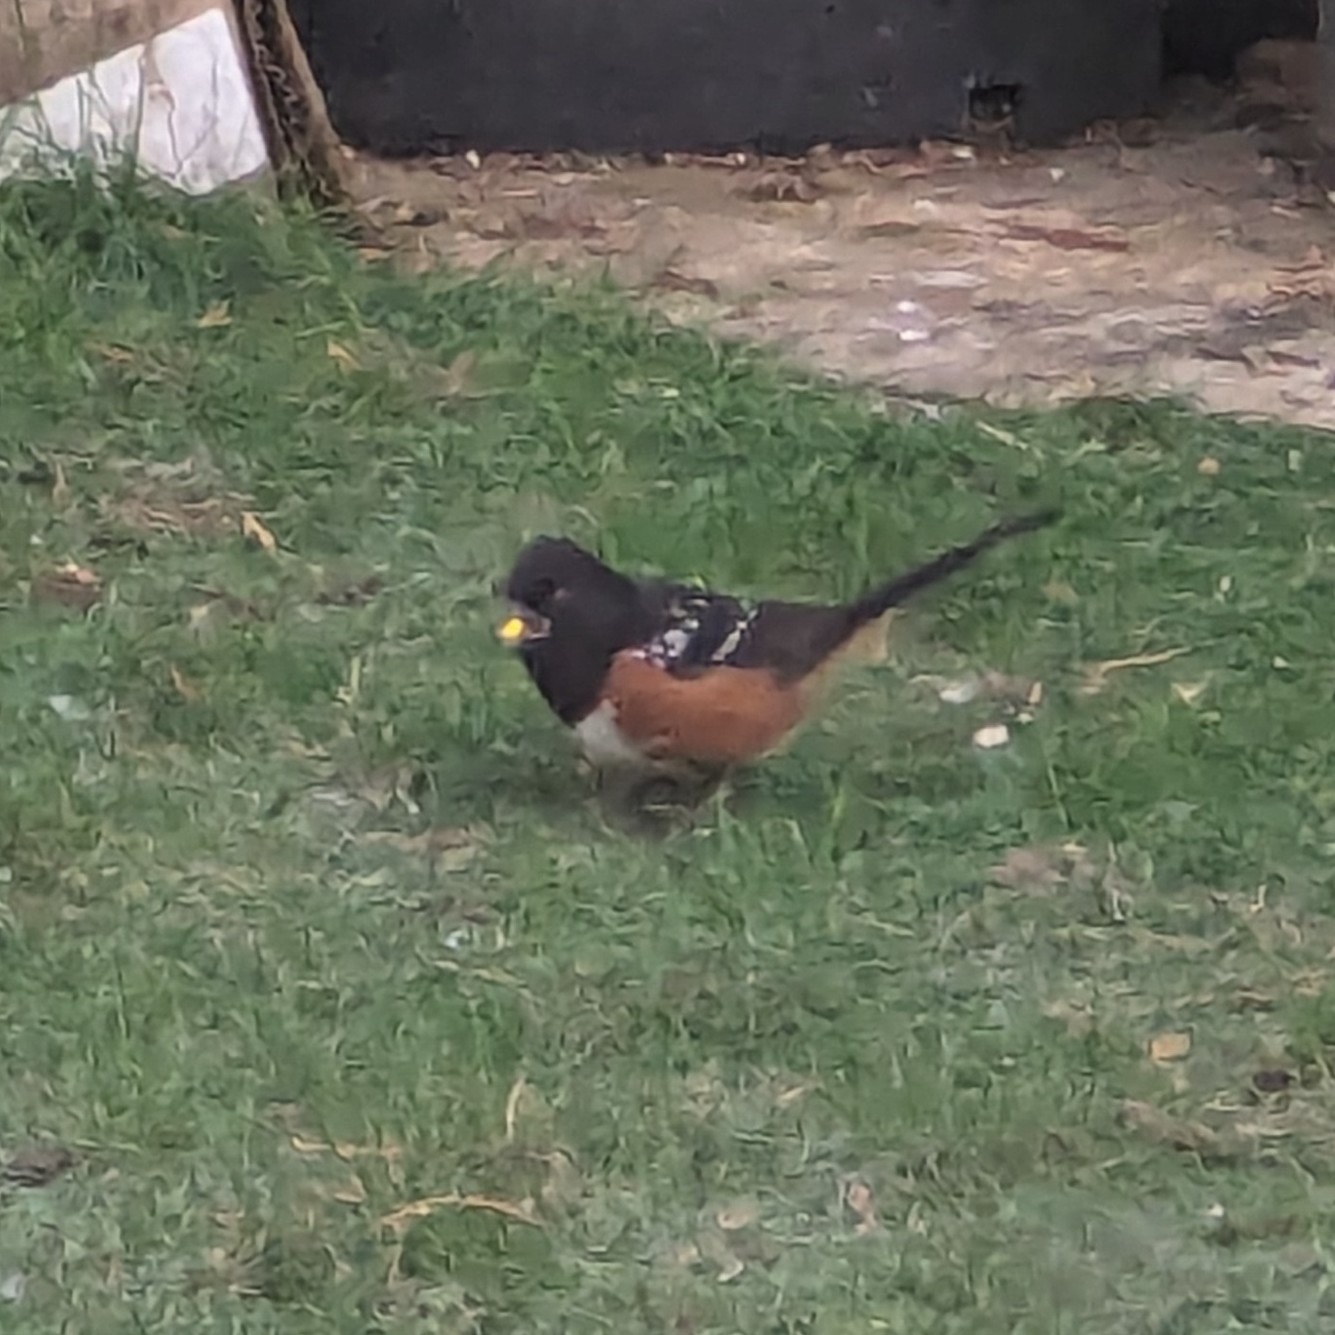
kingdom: Animalia
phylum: Chordata
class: Aves
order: Passeriformes
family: Passerellidae
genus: Pipilo
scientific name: Pipilo maculatus
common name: Spotted towhee
